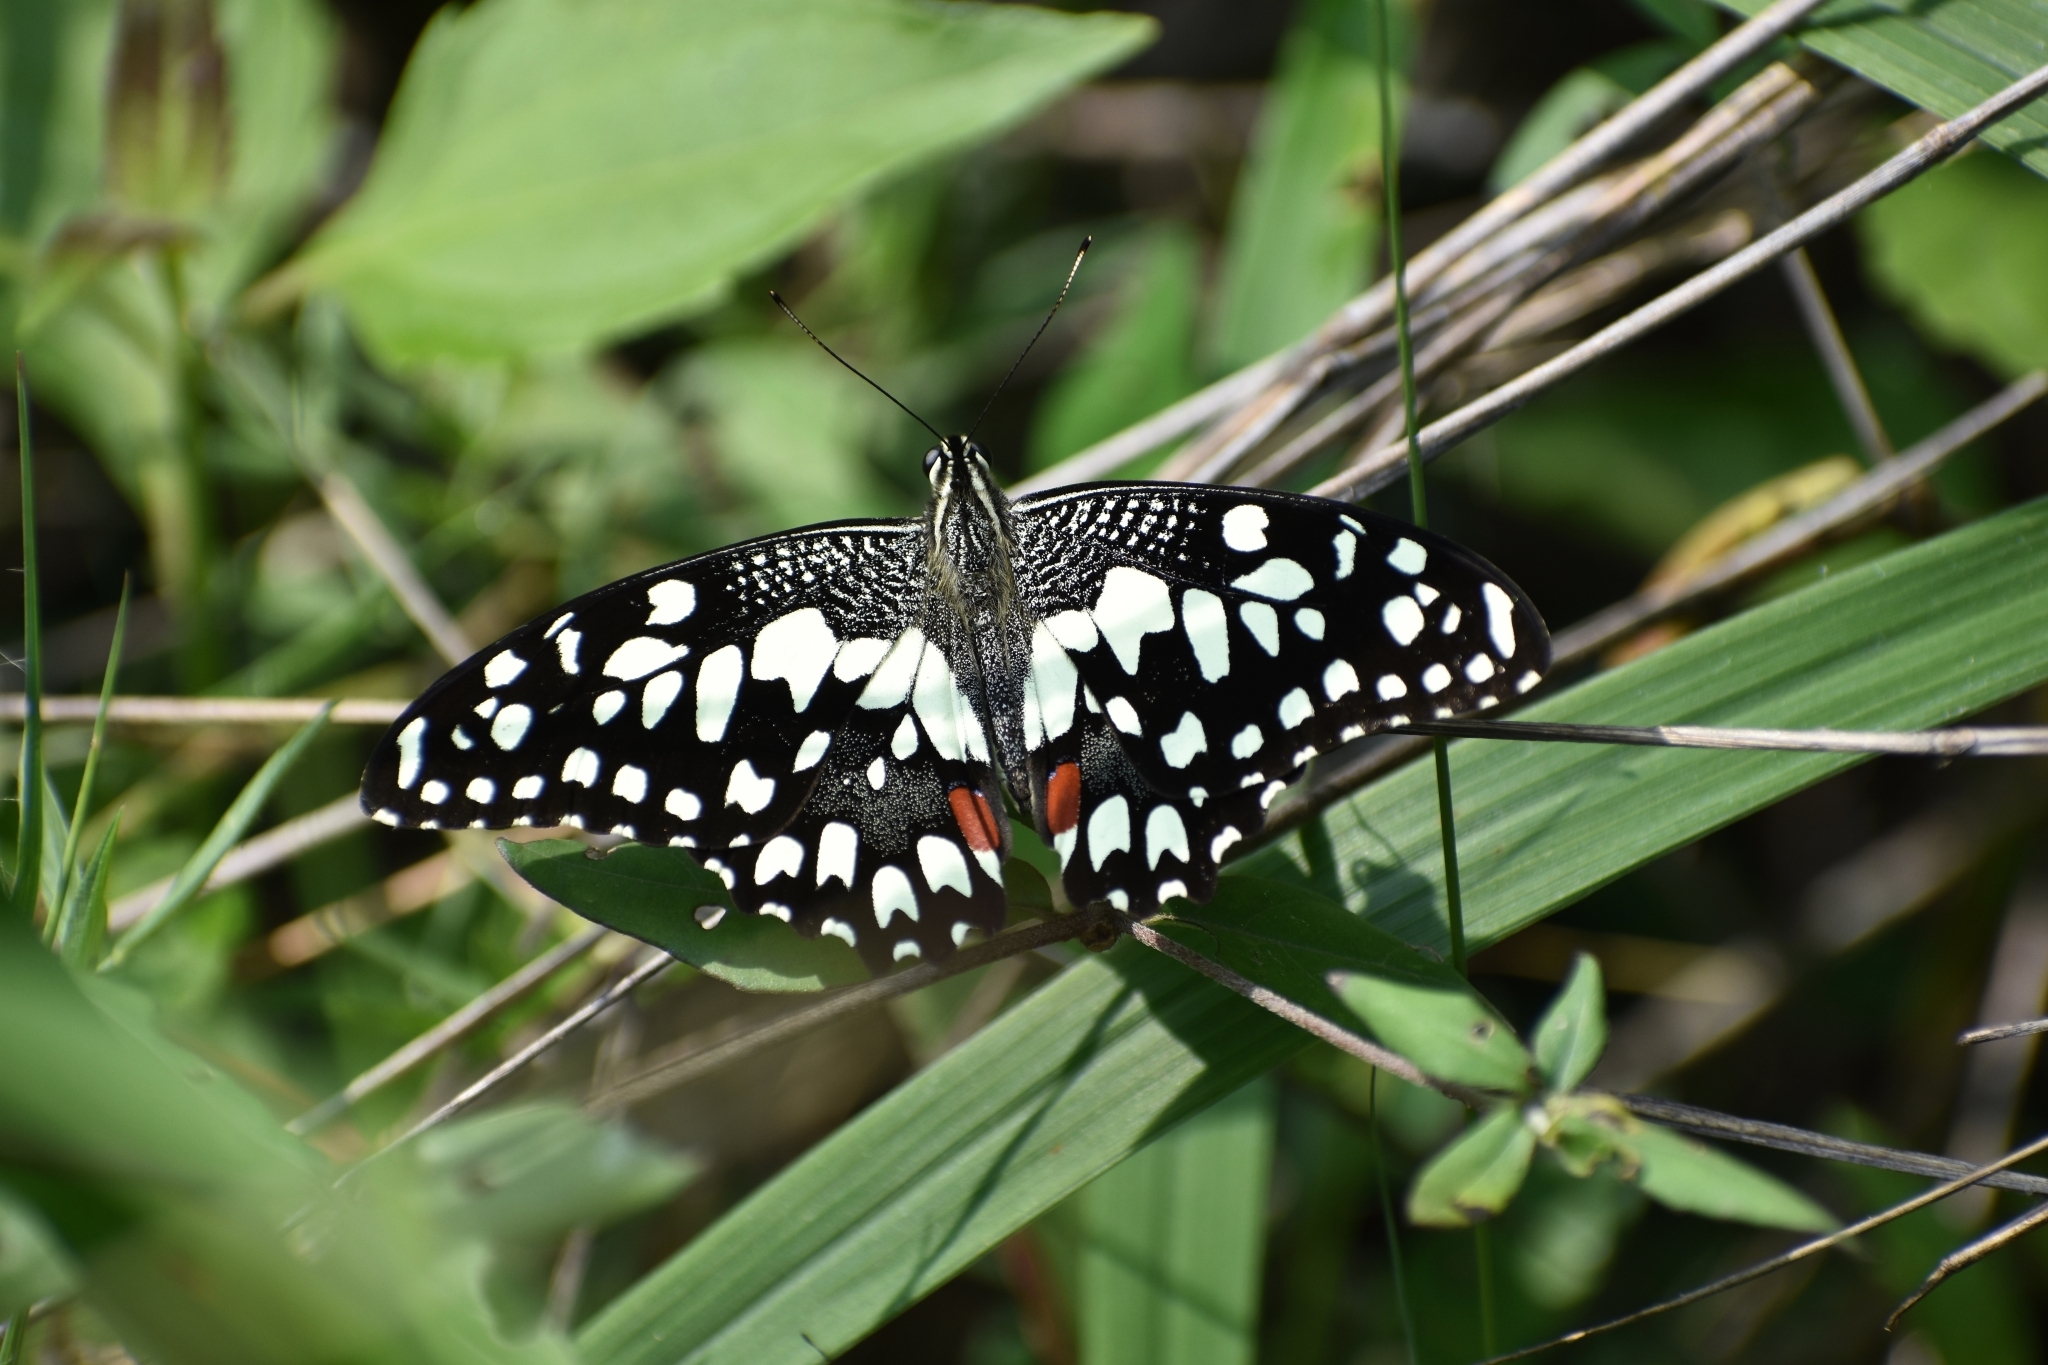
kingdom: Animalia
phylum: Arthropoda
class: Insecta
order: Lepidoptera
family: Papilionidae
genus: Papilio
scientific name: Papilio demoleus
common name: Lime butterfly
